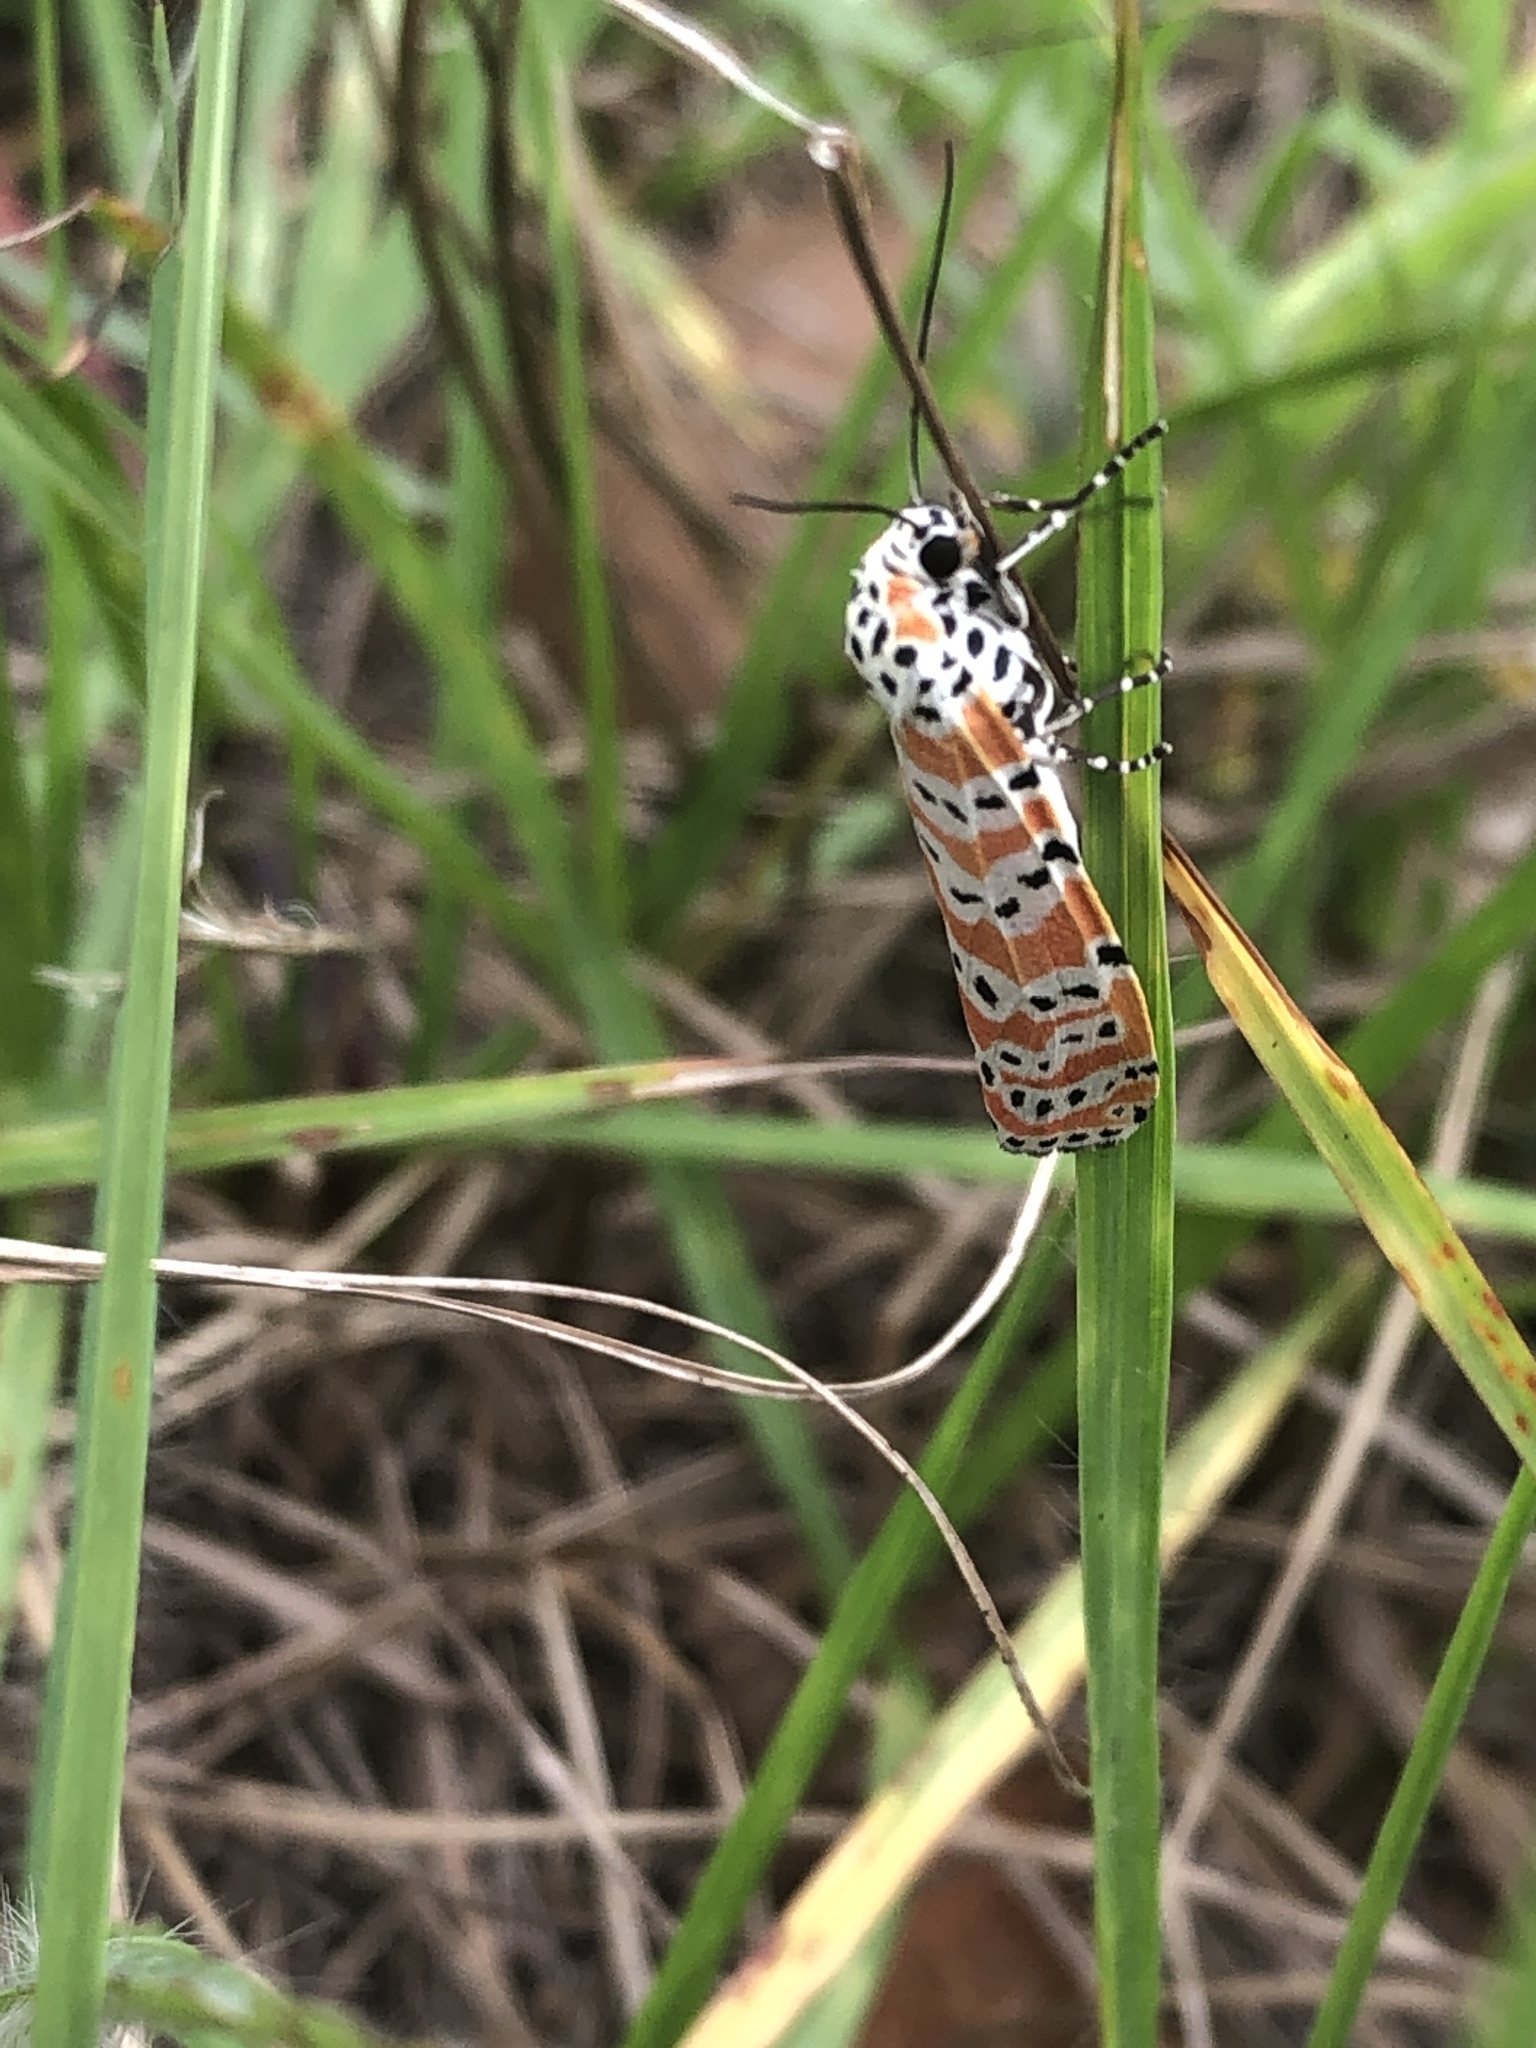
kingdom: Animalia
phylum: Arthropoda
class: Insecta
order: Lepidoptera
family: Erebidae
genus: Utetheisa
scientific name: Utetheisa ornatrix
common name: Beautiful utetheisa
